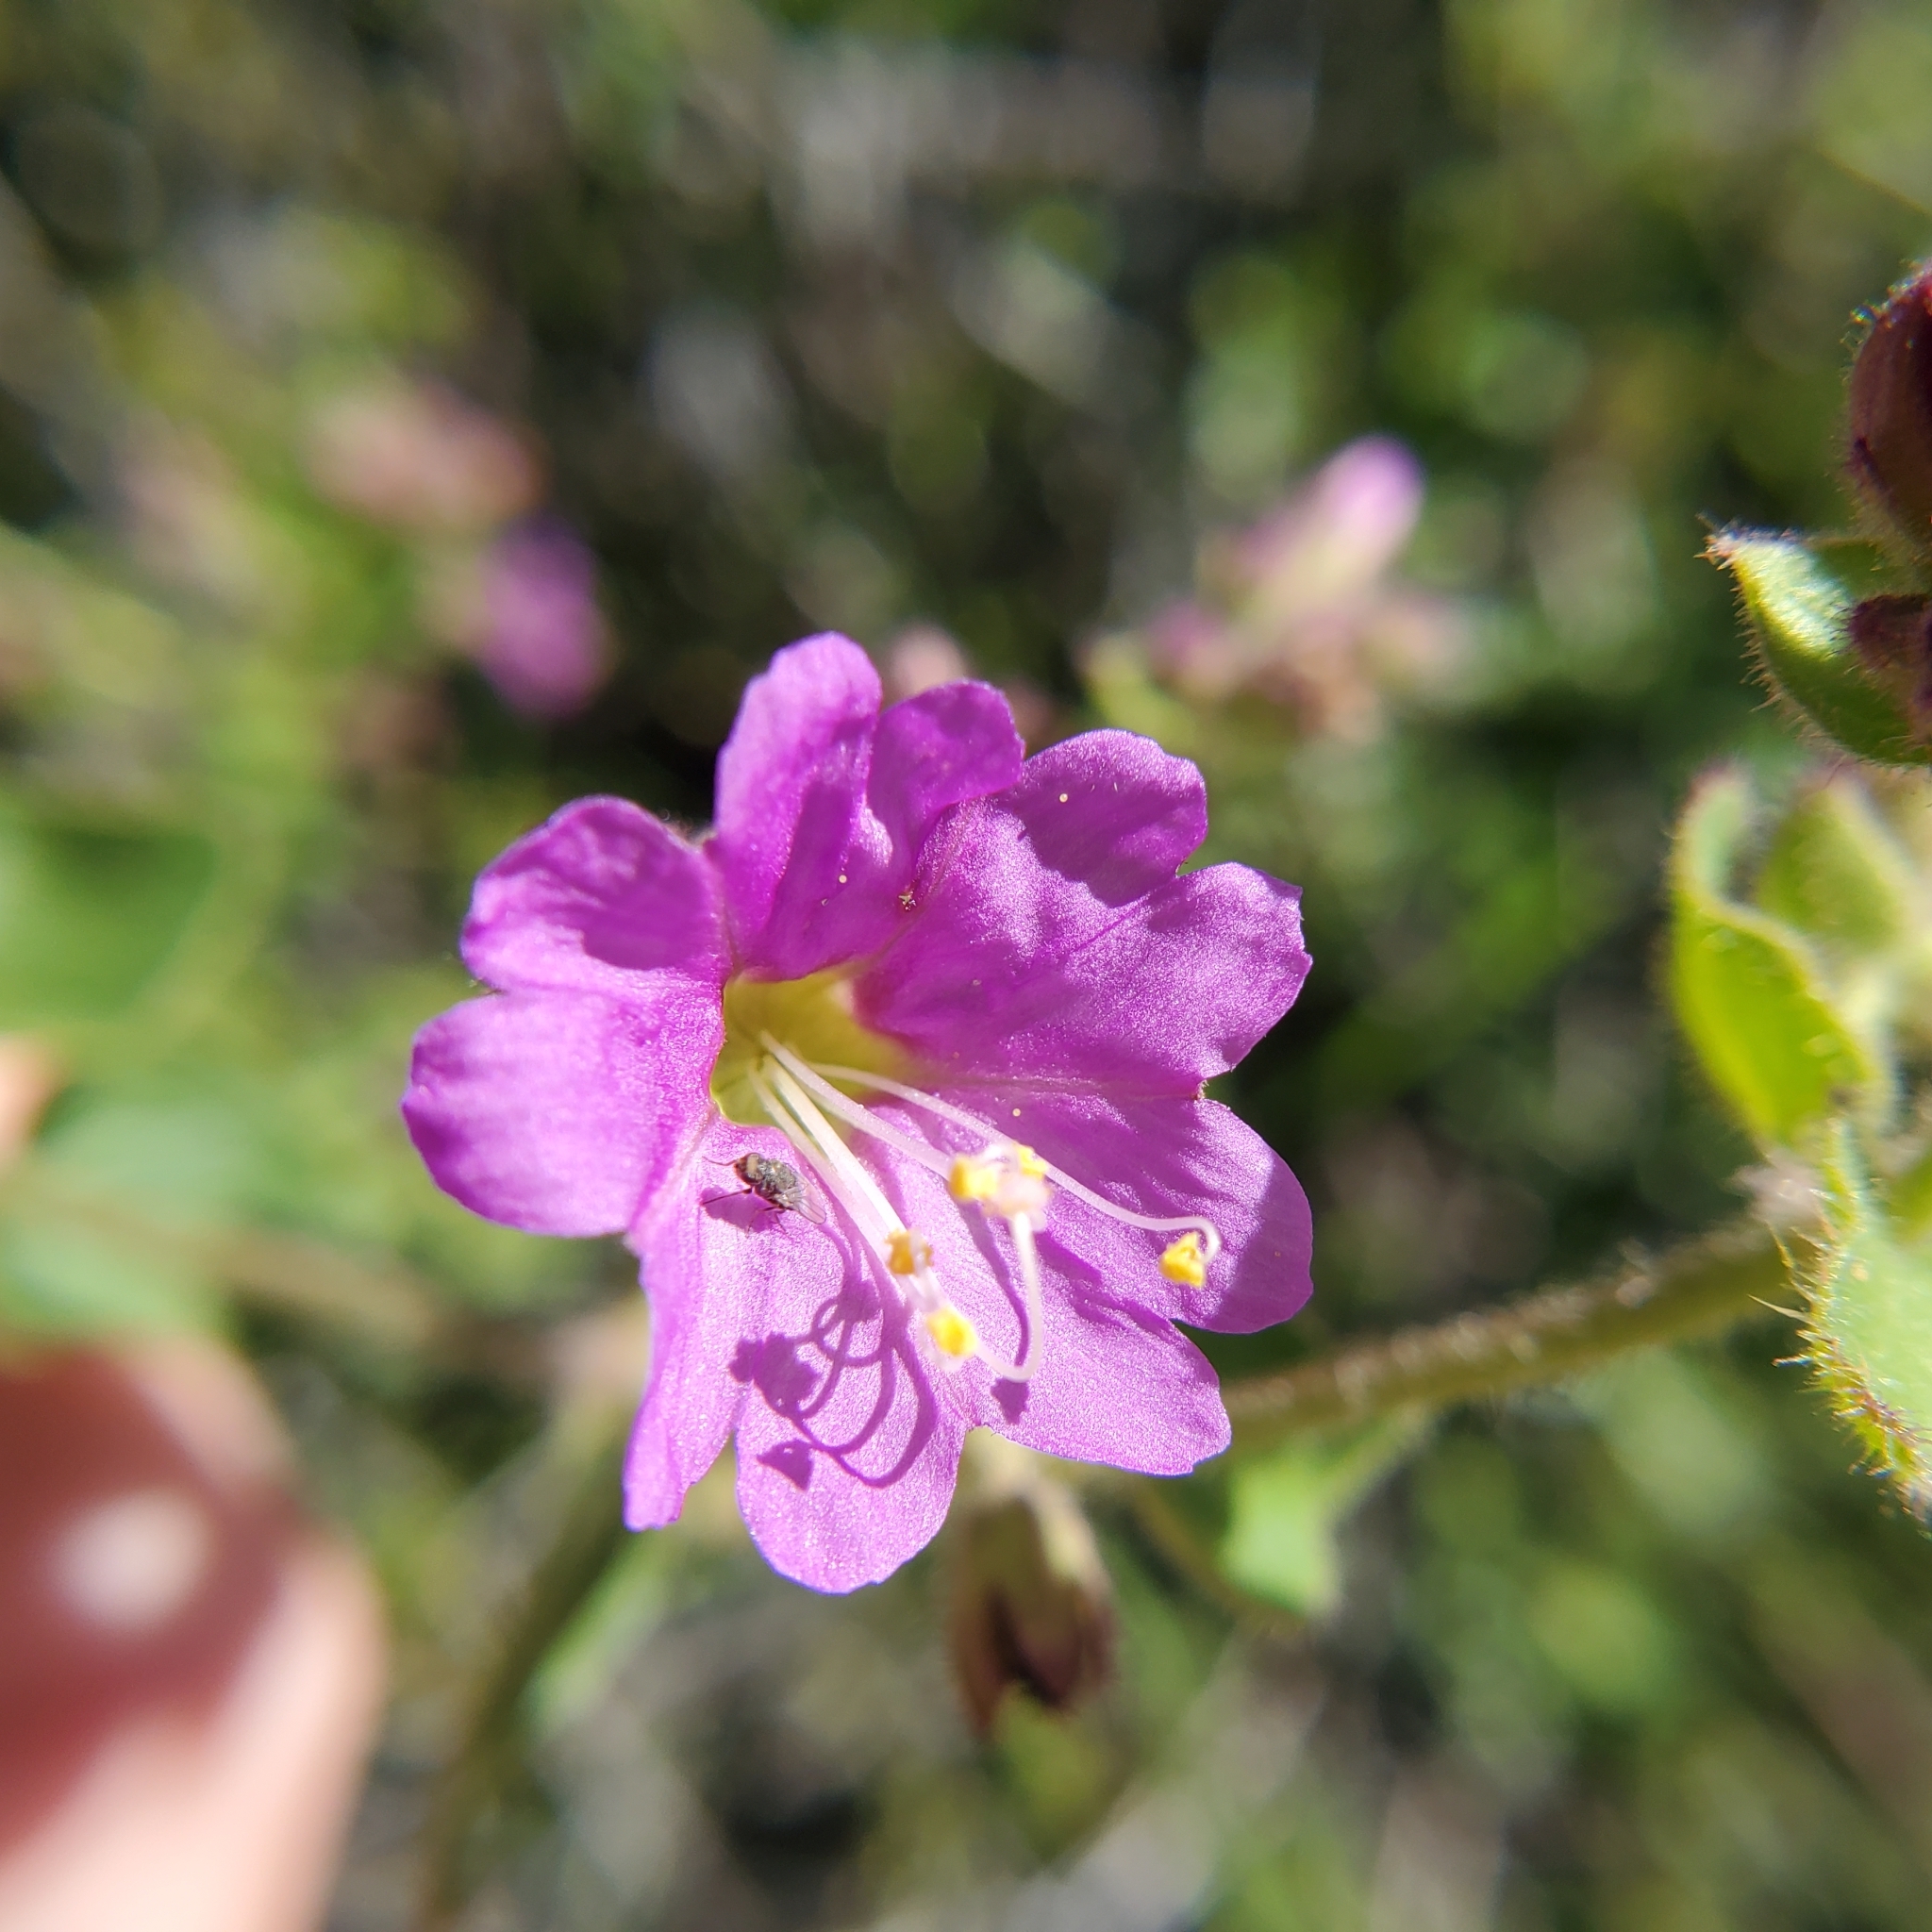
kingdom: Plantae
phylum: Tracheophyta
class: Magnoliopsida
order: Caryophyllales
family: Nyctaginaceae
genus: Mirabilis
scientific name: Mirabilis laevis
